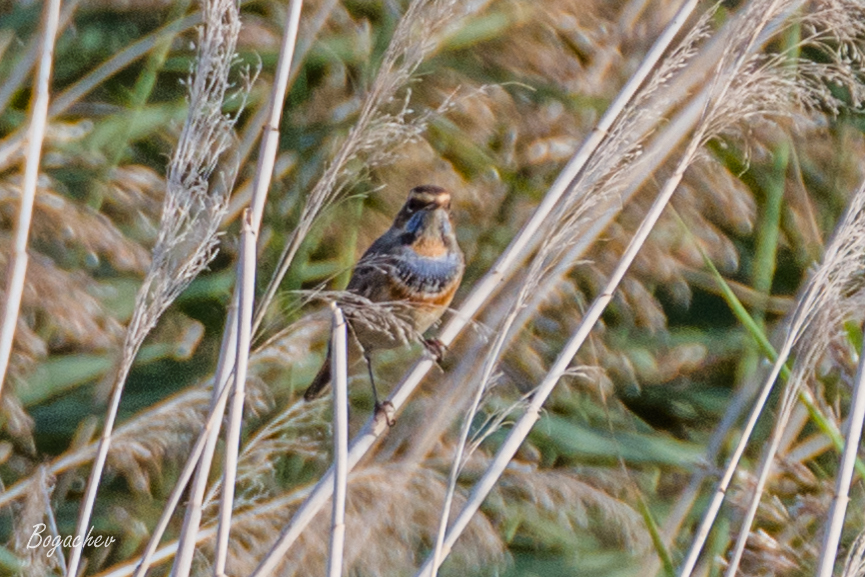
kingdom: Animalia
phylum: Chordata
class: Aves
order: Passeriformes
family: Muscicapidae
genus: Luscinia
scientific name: Luscinia svecica
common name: Bluethroat
